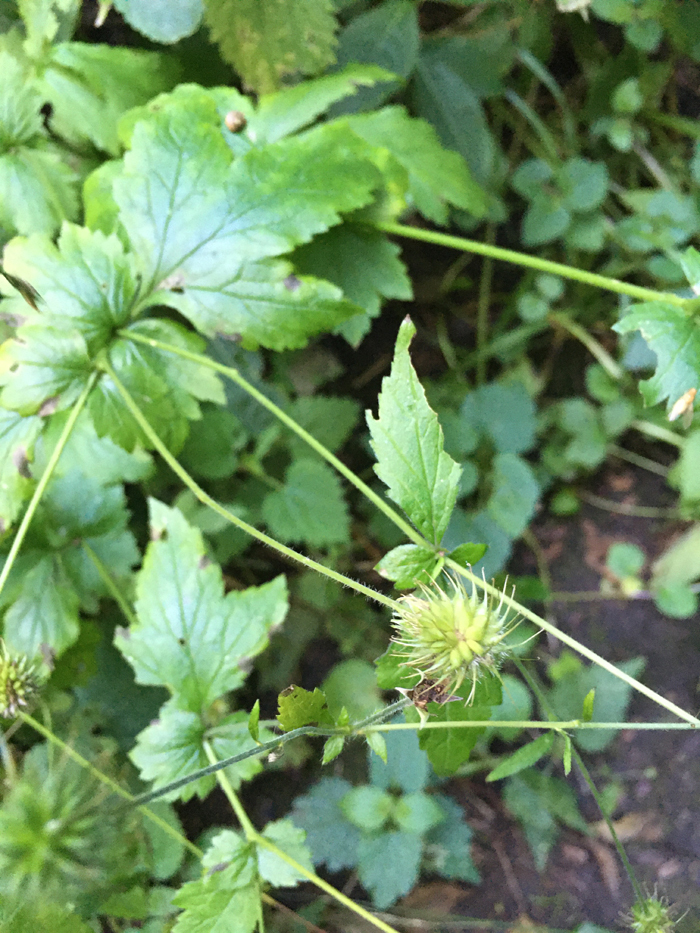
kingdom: Plantae
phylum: Tracheophyta
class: Magnoliopsida
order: Rosales
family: Rosaceae
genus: Geum
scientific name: Geum urbanum
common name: Wood avens
